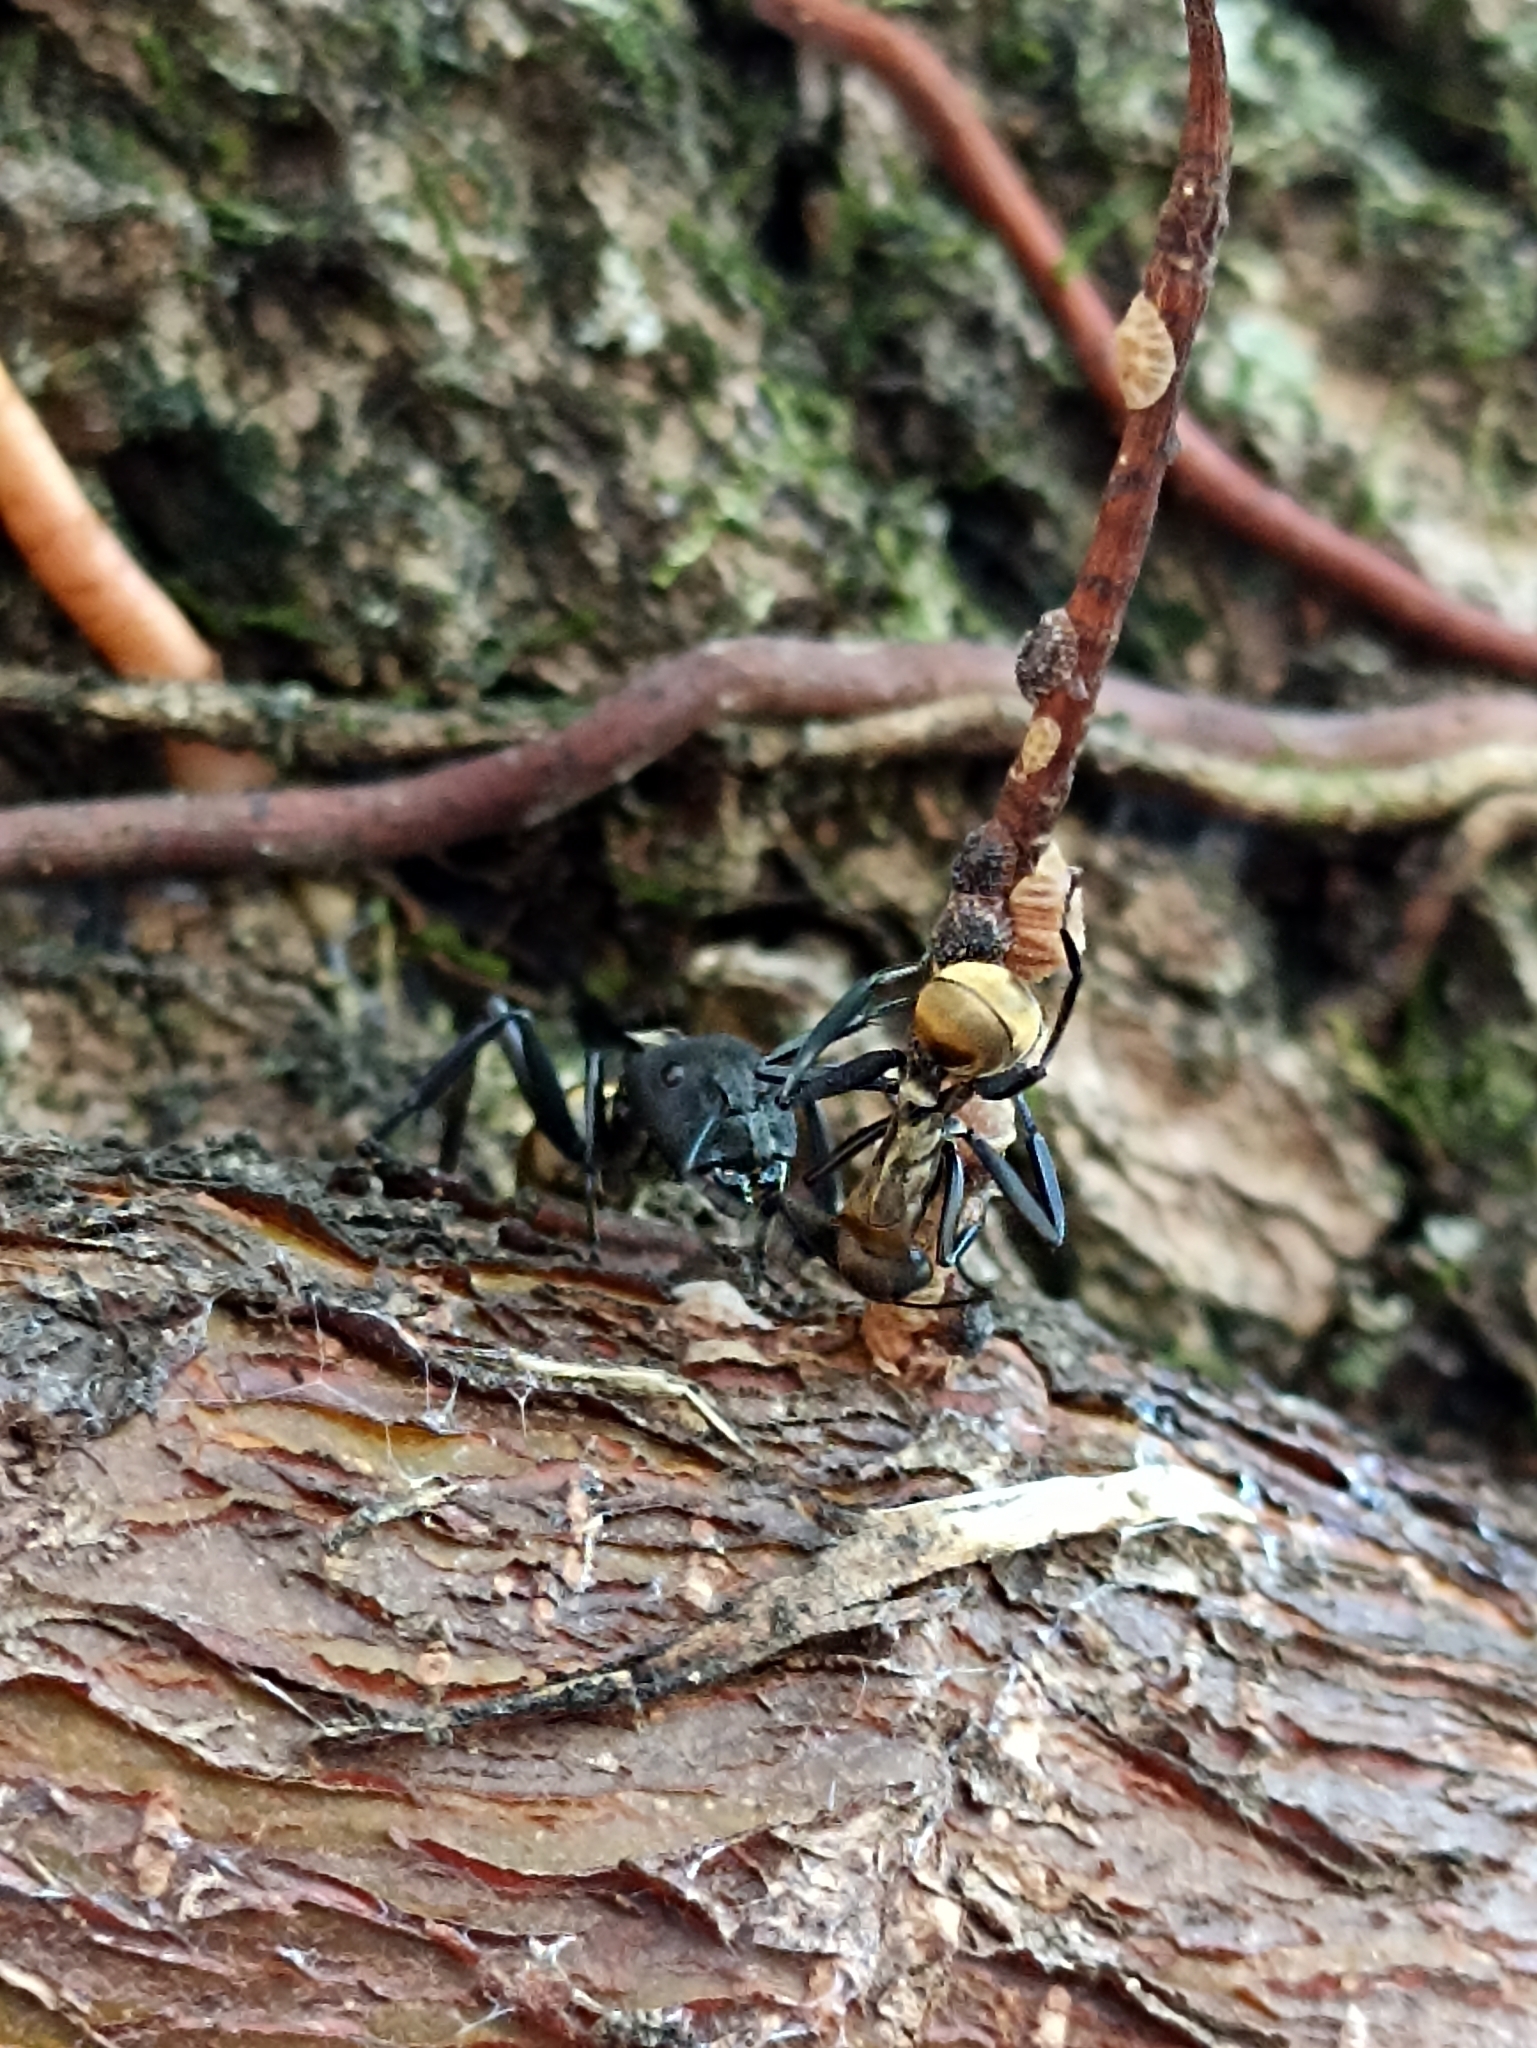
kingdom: Animalia
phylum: Arthropoda
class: Insecta
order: Hymenoptera
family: Formicidae
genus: Camponotus
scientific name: Camponotus sericeiventris
